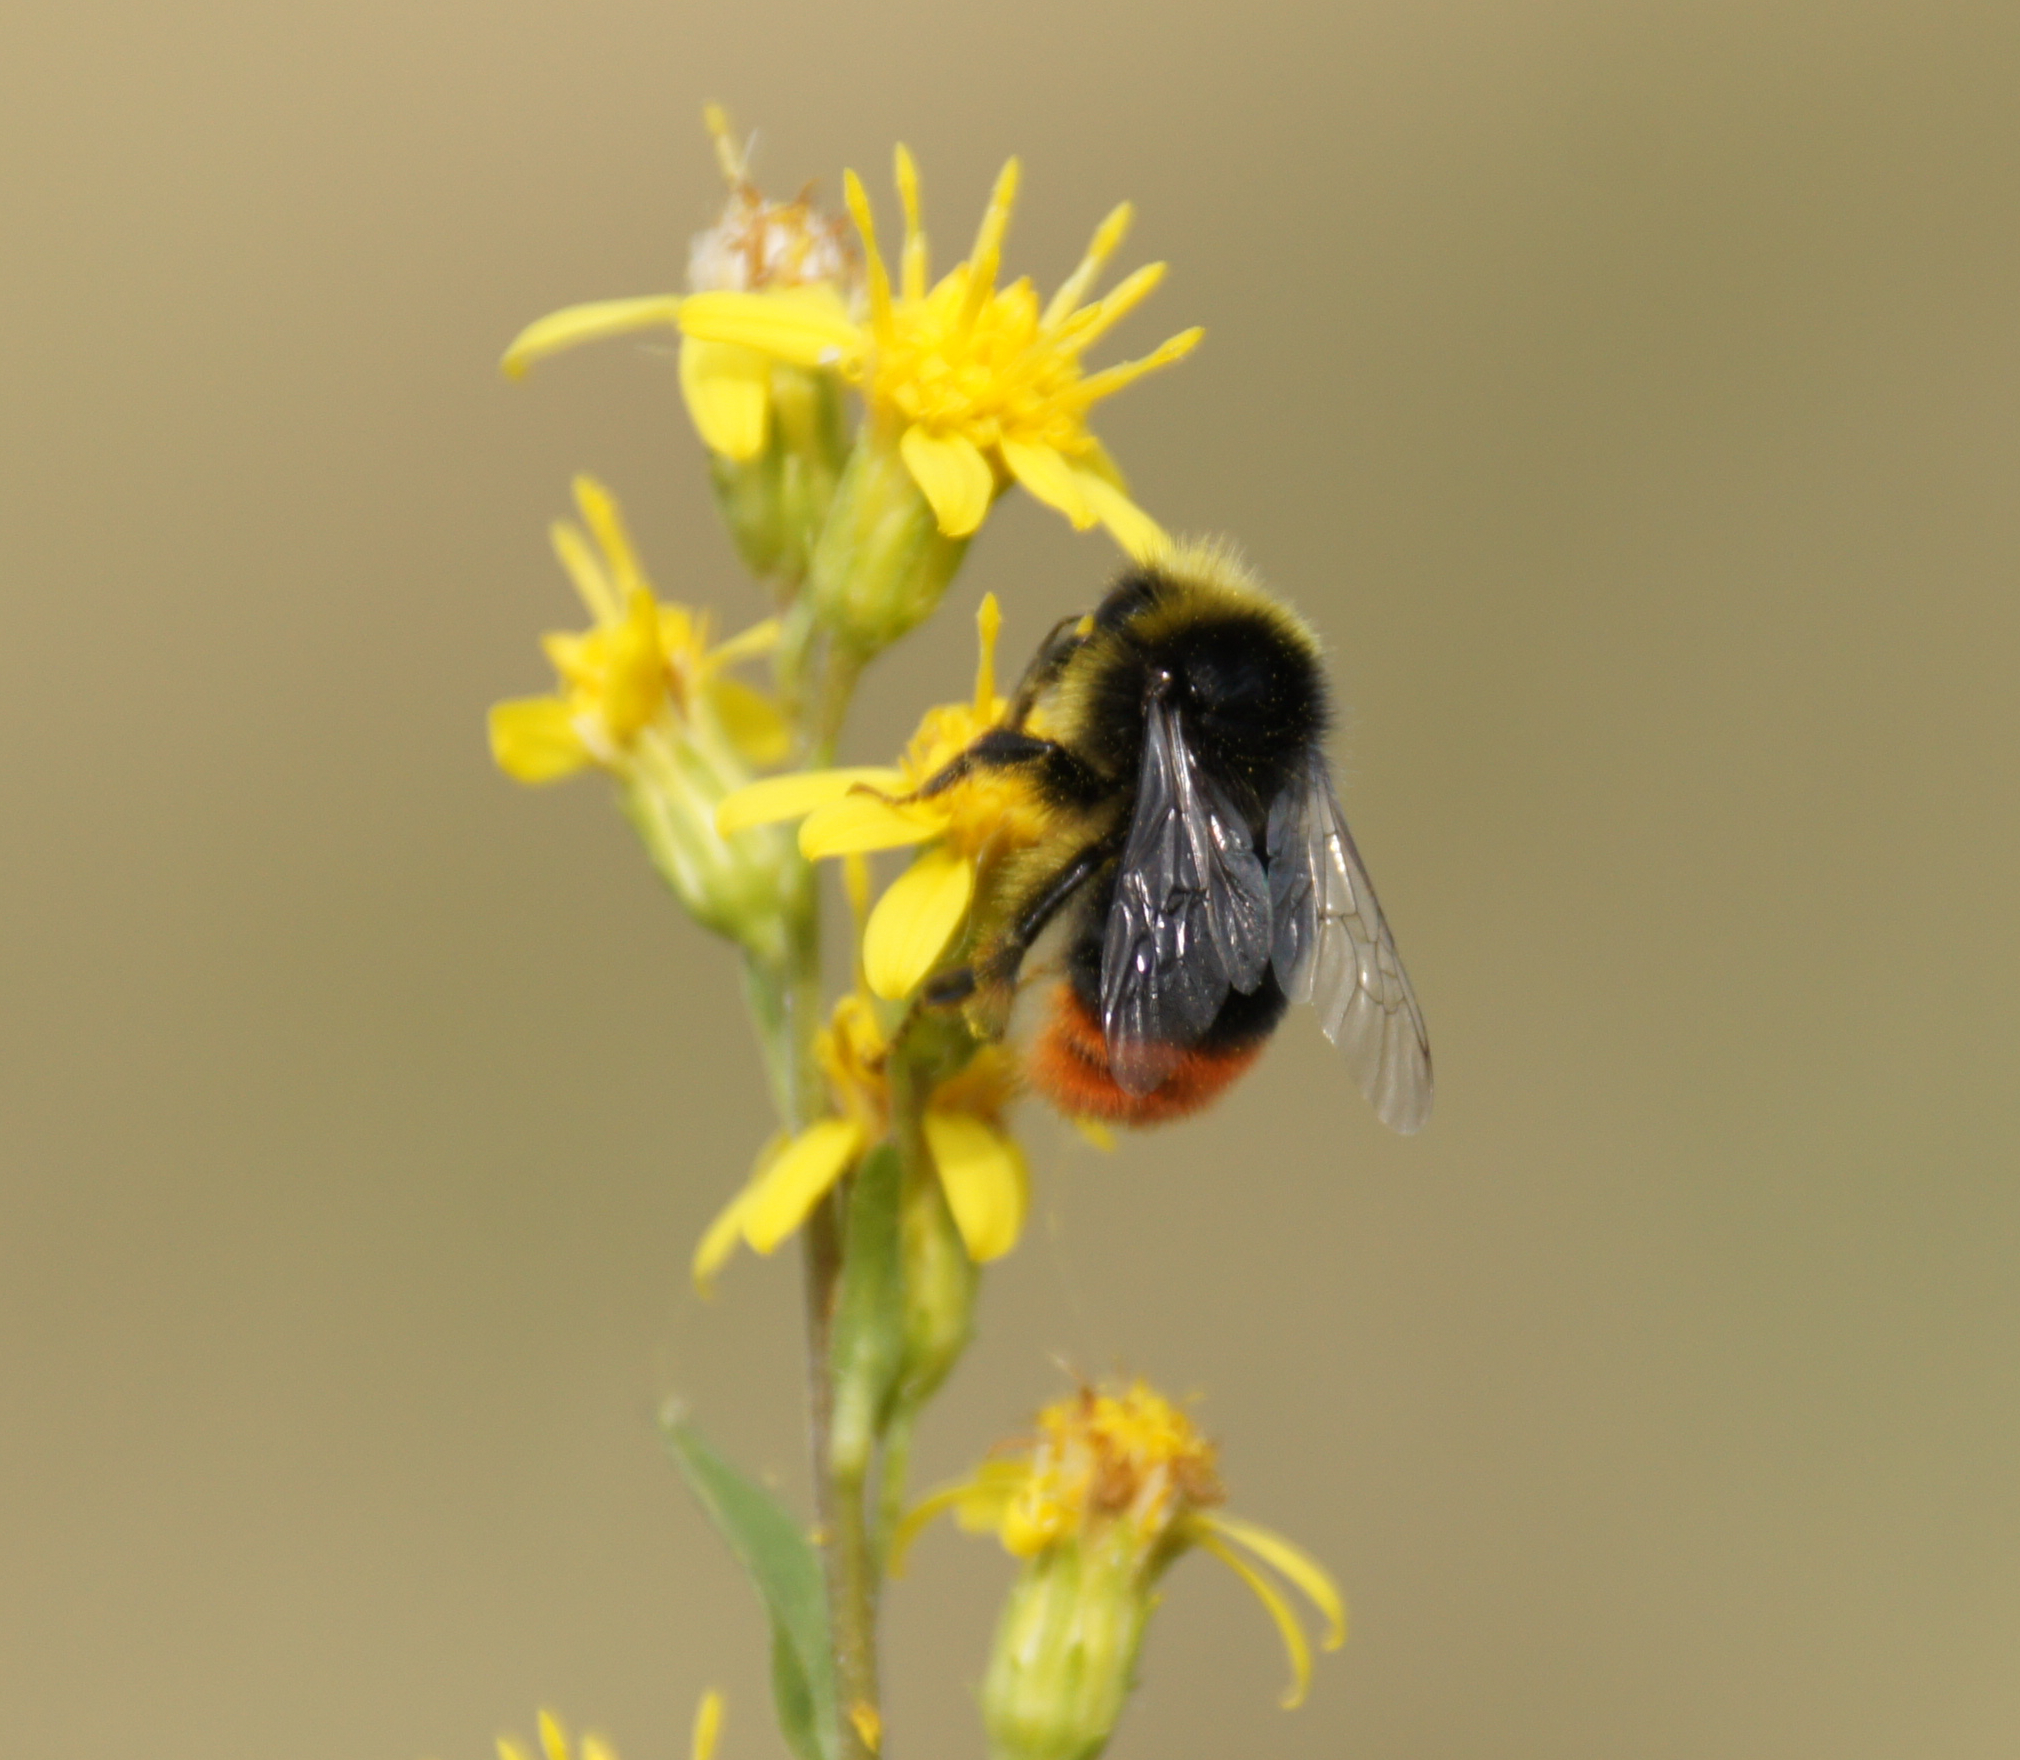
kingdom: Animalia
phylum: Arthropoda
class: Insecta
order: Hymenoptera
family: Apidae
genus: Bombus
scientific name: Bombus lapidarius
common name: Large red-tailed humble-bee
